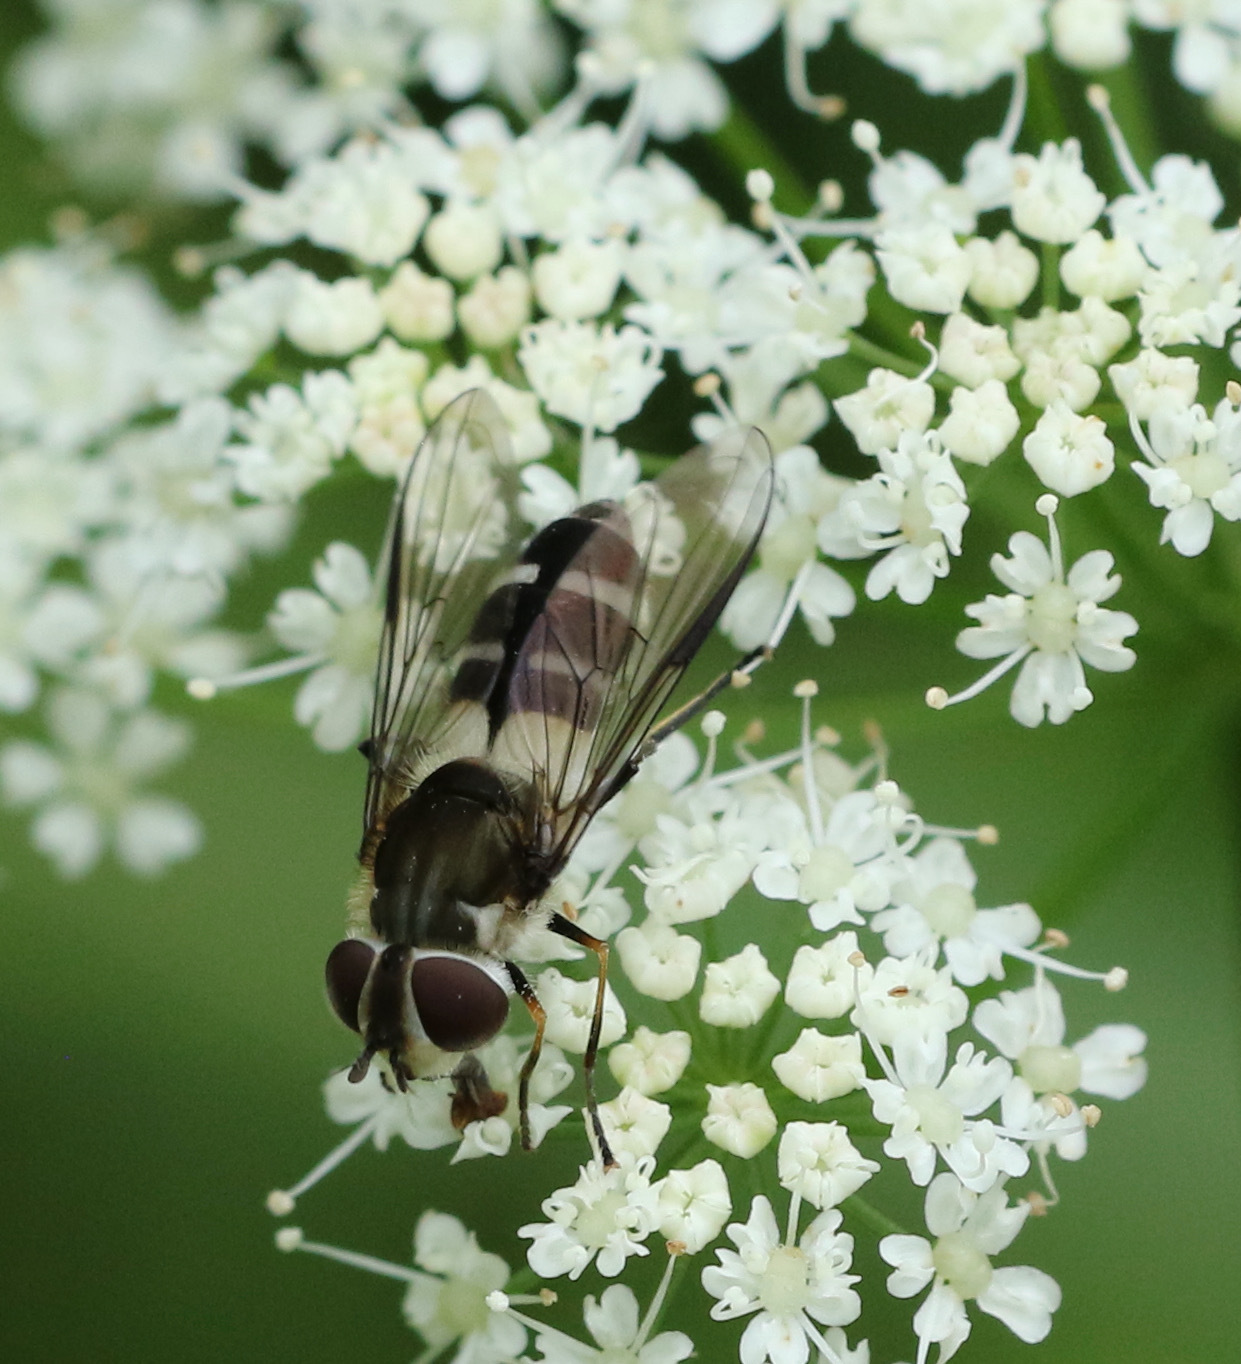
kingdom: Animalia
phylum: Arthropoda
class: Insecta
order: Diptera
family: Syrphidae
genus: Leucozona
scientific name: Leucozona laternaria
